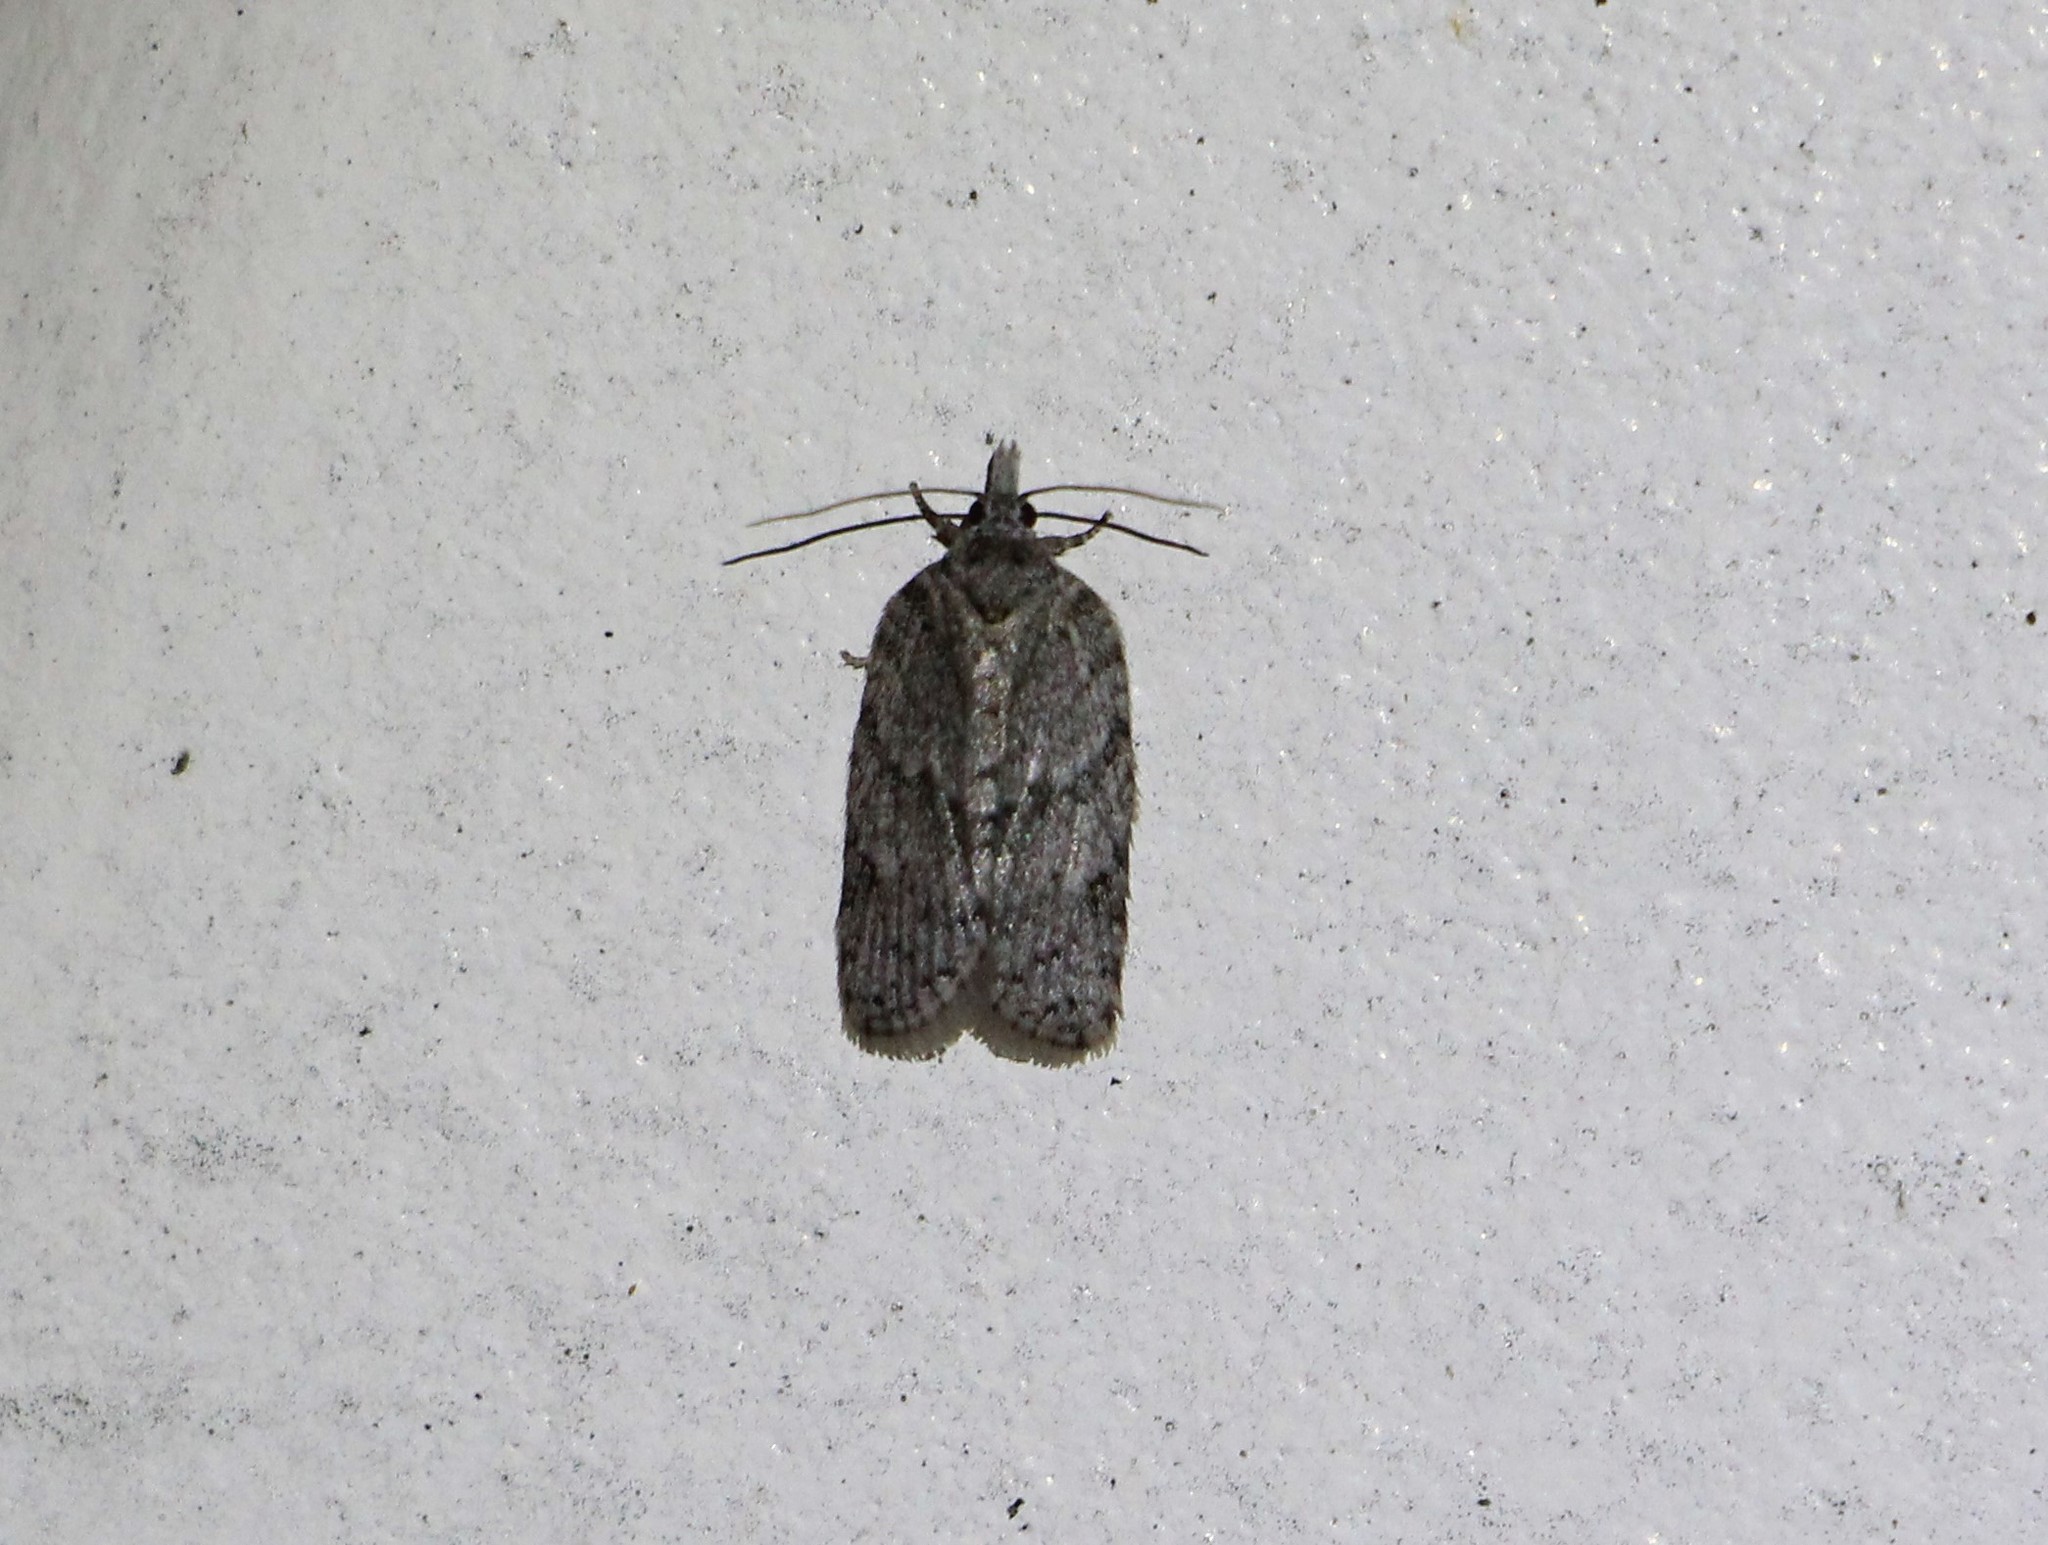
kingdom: Animalia
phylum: Arthropoda
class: Insecta
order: Lepidoptera
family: Tortricidae
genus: Isotenes
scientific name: Isotenes miserana
